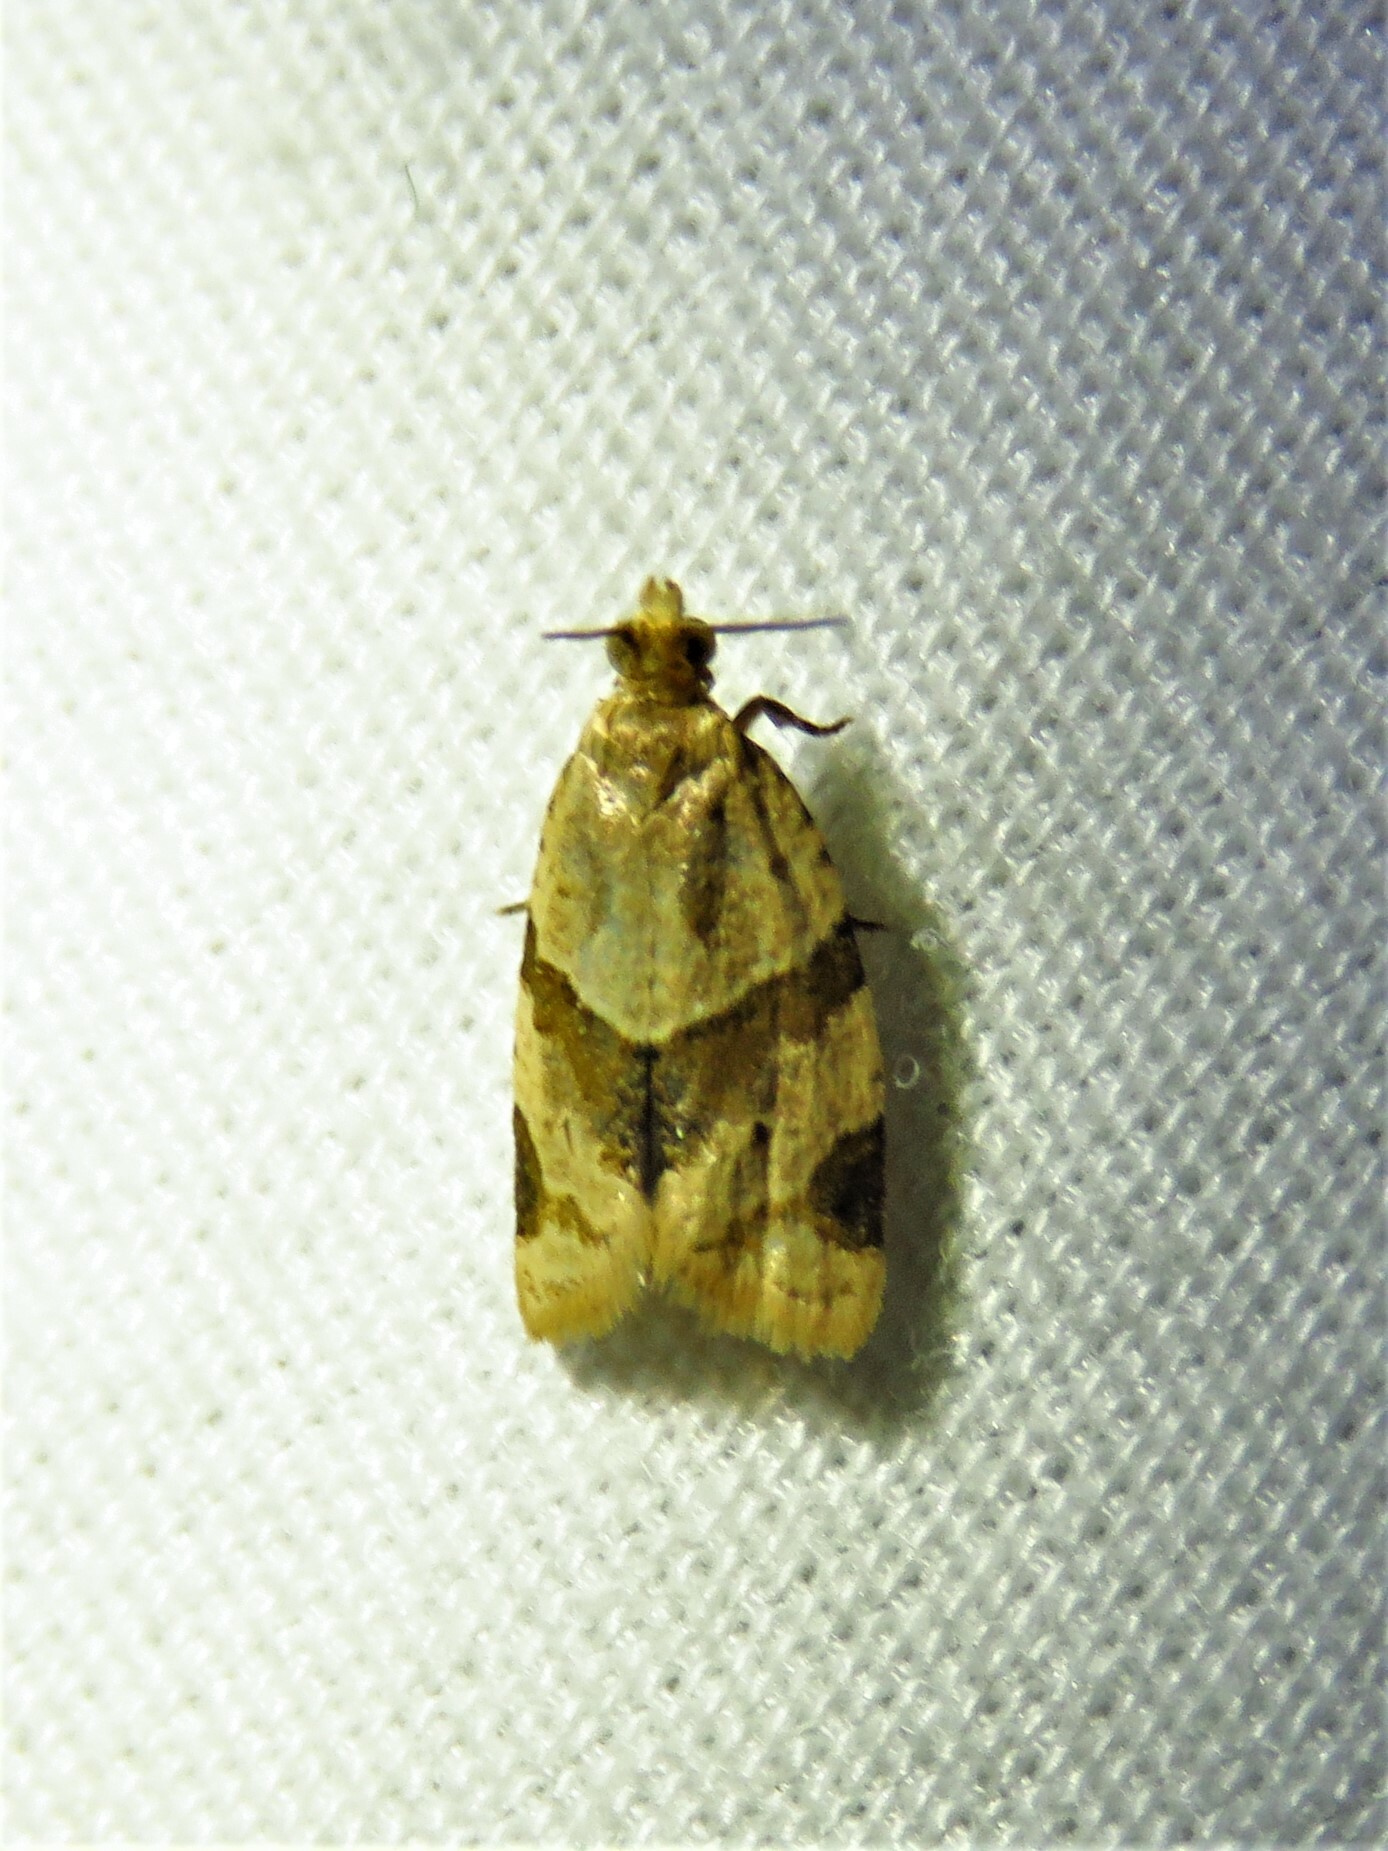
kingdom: Animalia
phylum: Arthropoda
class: Insecta
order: Lepidoptera
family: Tortricidae
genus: Clepsis
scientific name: Clepsis peritana
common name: Garden tortrix
